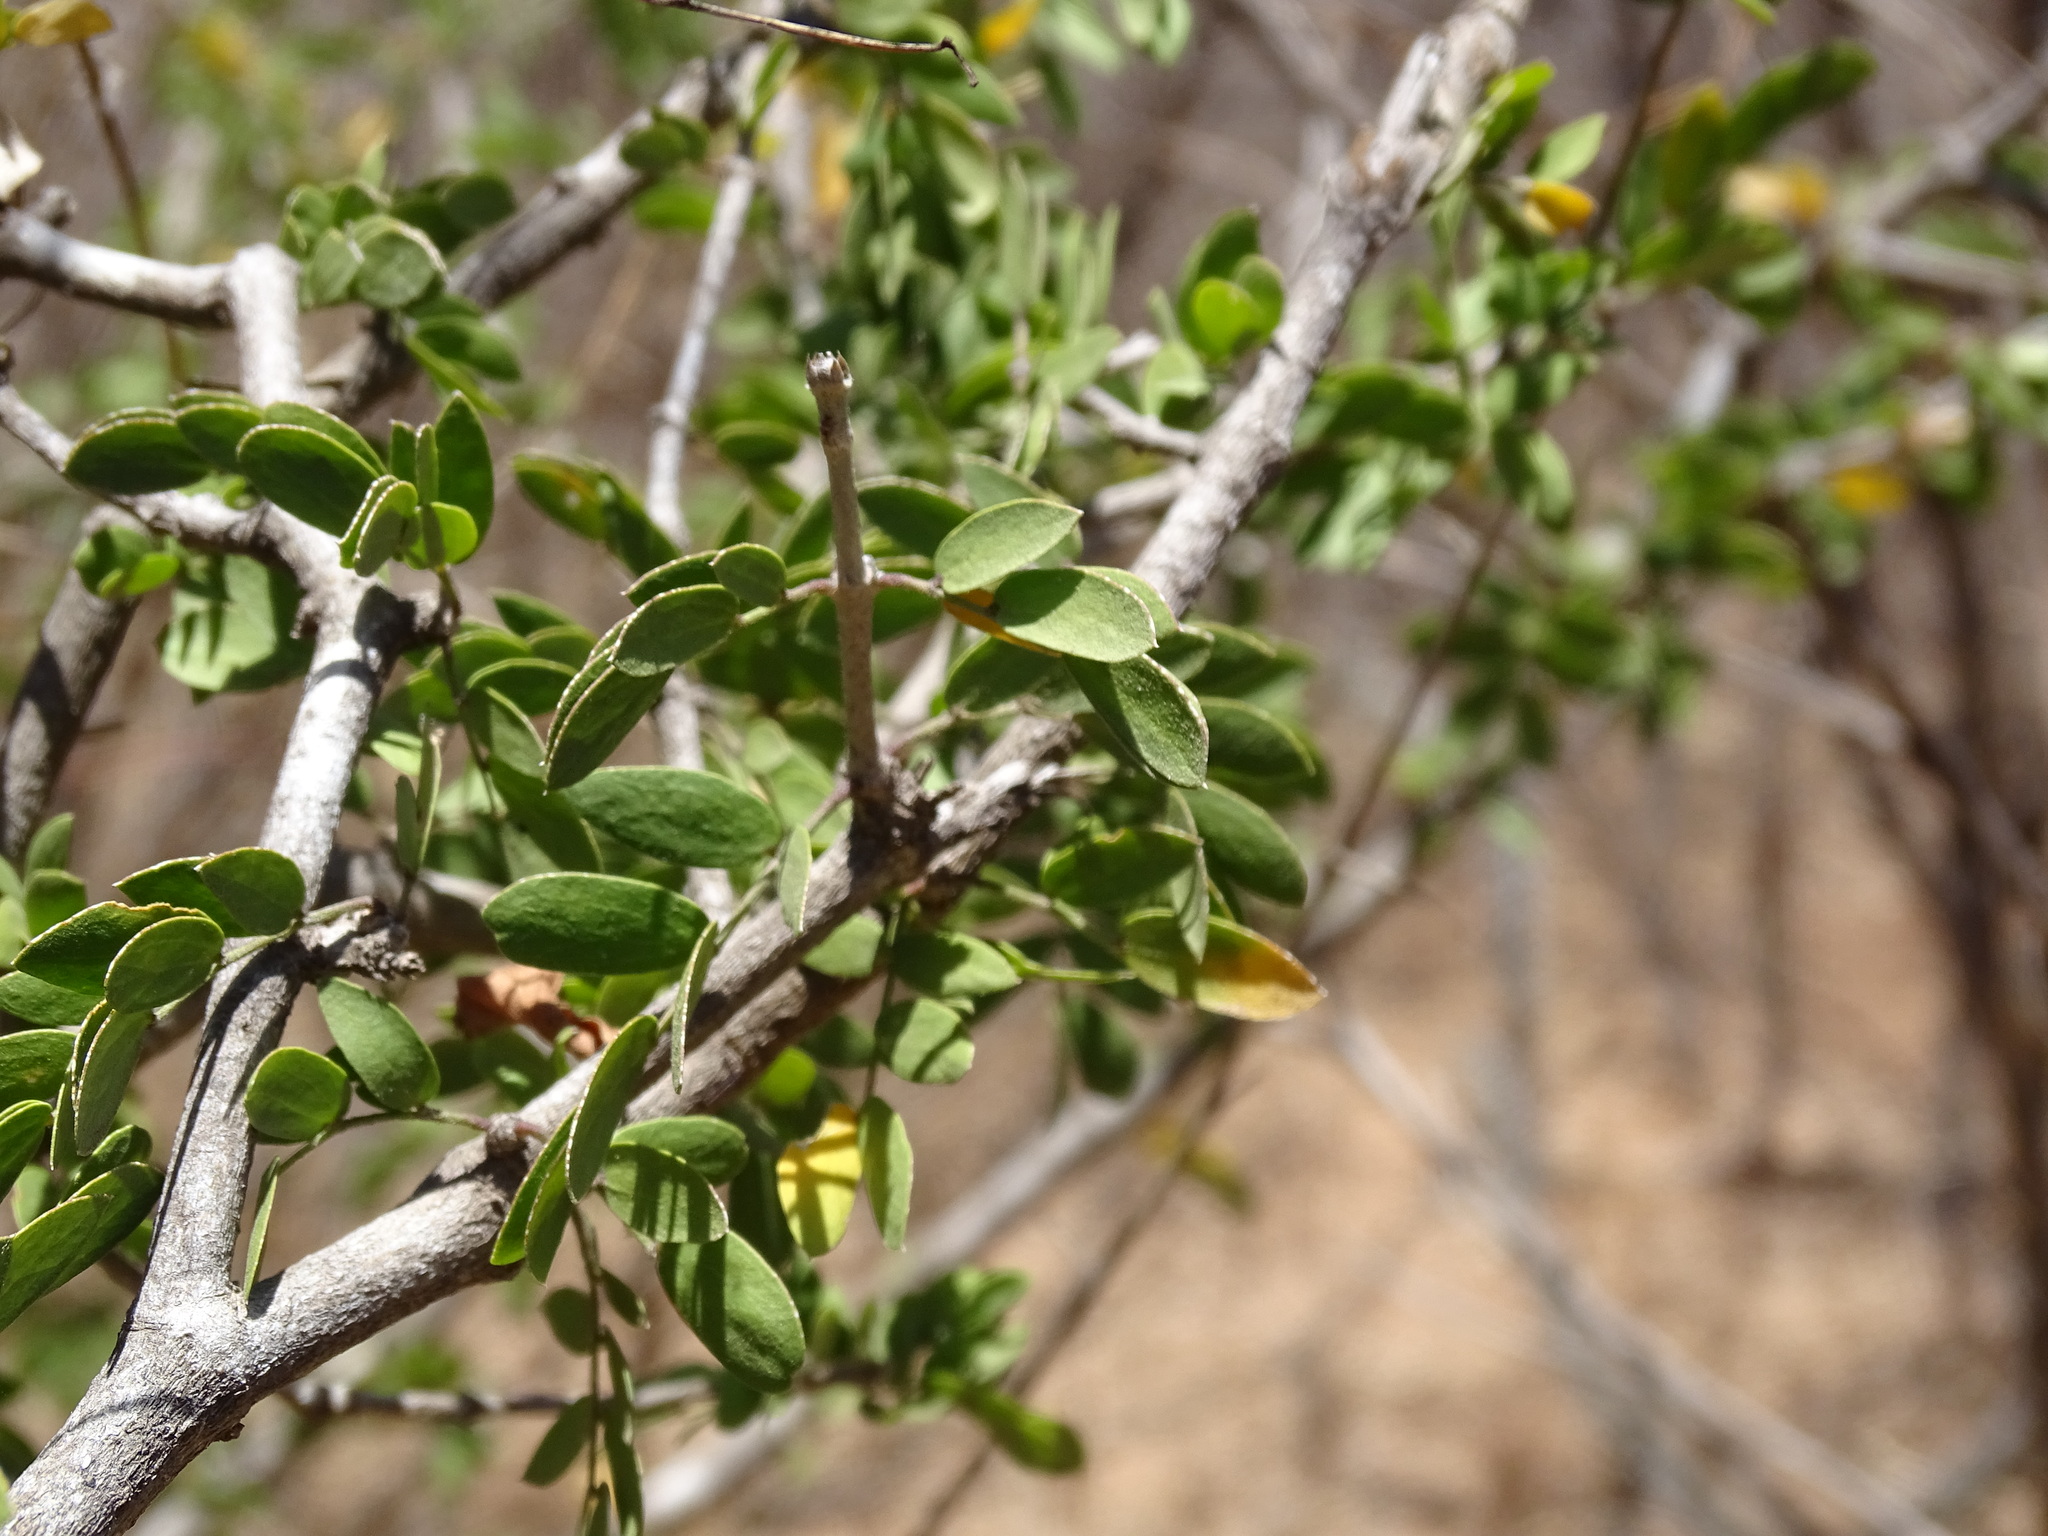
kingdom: Plantae
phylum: Tracheophyta
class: Magnoliopsida
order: Zygophyllales
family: Zygophyllaceae
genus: Guaiacum
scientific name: Guaiacum coulteri
